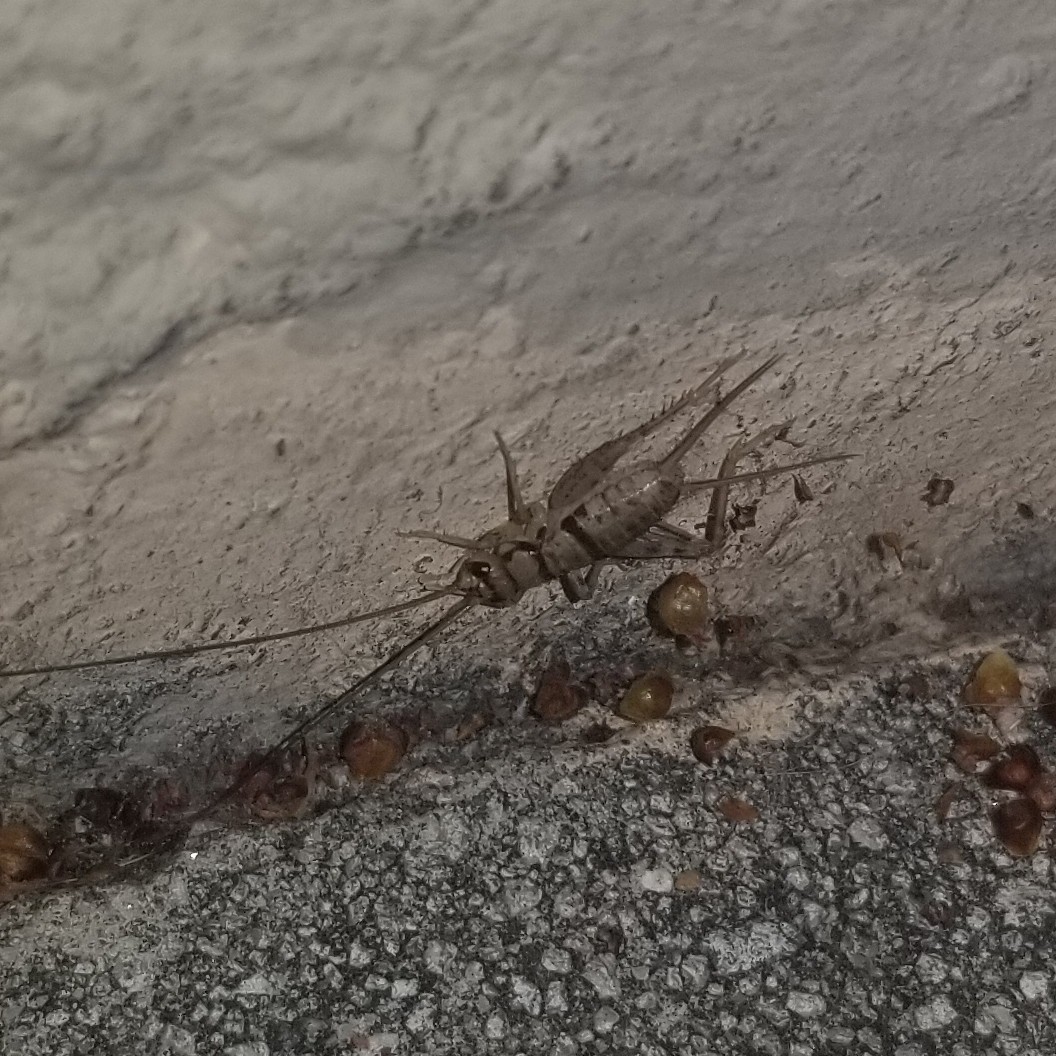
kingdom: Animalia
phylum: Arthropoda
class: Insecta
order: Orthoptera
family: Gryllidae
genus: Gryllodes
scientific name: Gryllodes sigillatus
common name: Tropical house cricket
